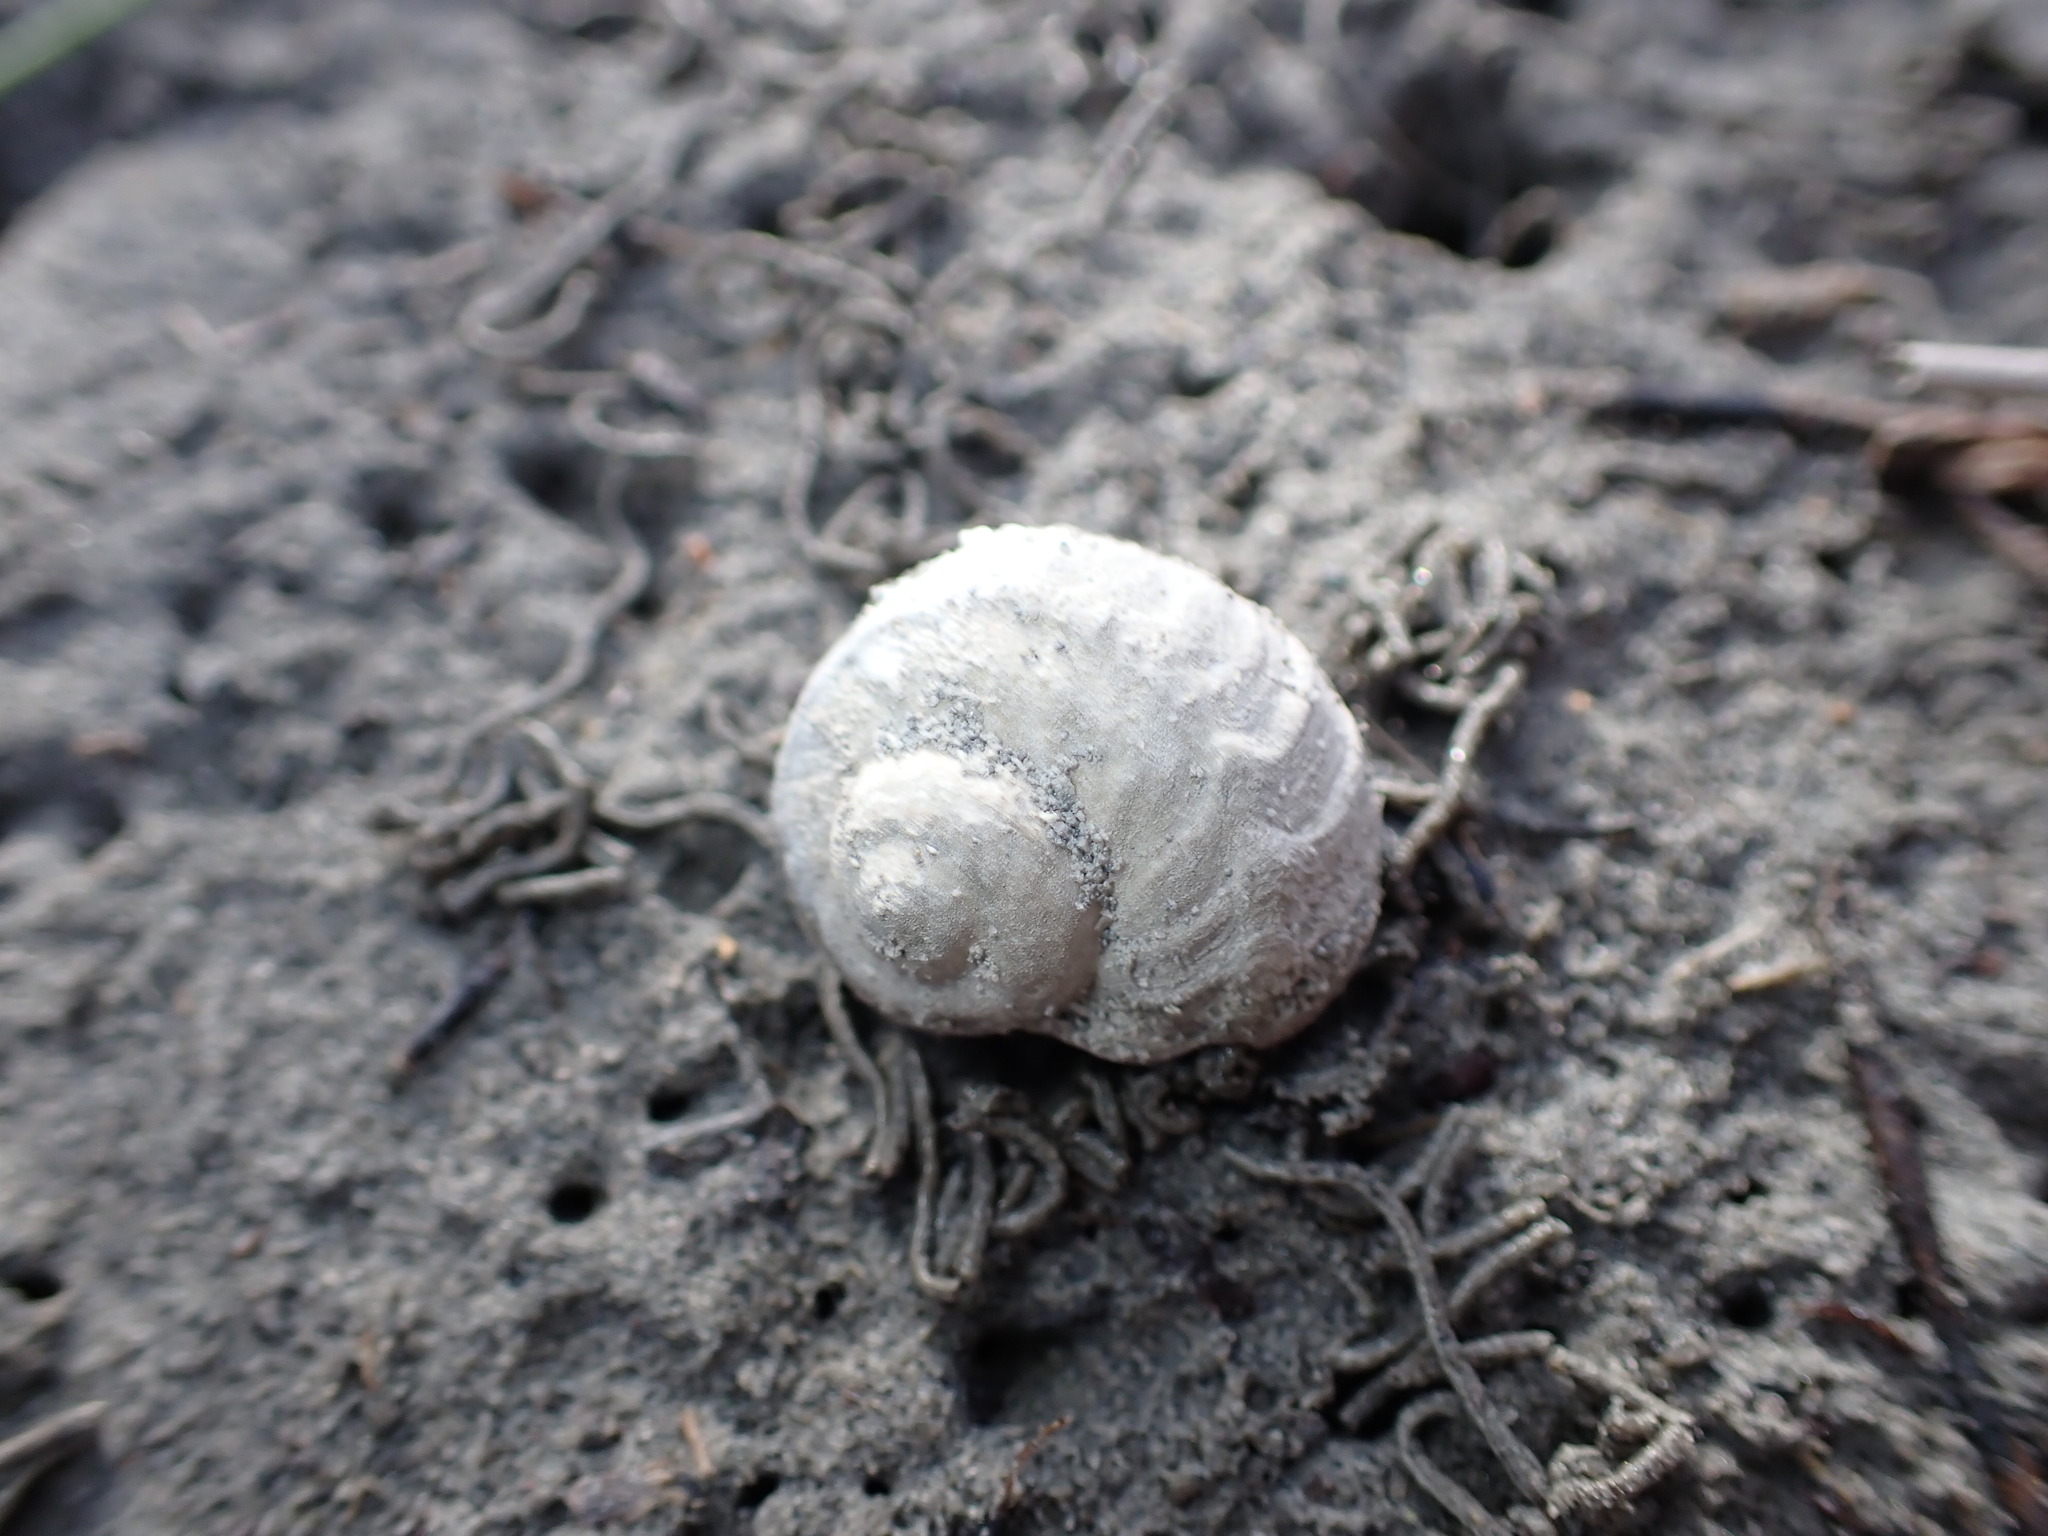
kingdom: Animalia
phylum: Mollusca
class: Gastropoda
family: Amphibolidae
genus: Amphibola
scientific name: Amphibola crenata
